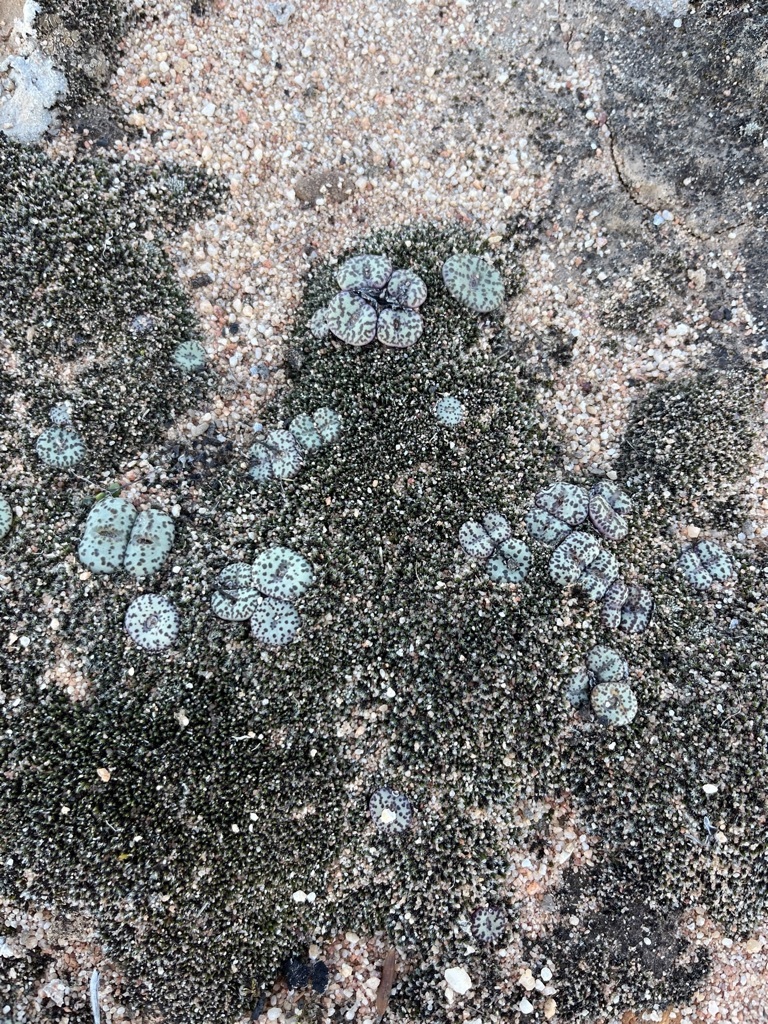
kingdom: Plantae
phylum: Tracheophyta
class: Magnoliopsida
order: Caryophyllales
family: Aizoaceae
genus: Conophytum
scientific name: Conophytum obcordellum
